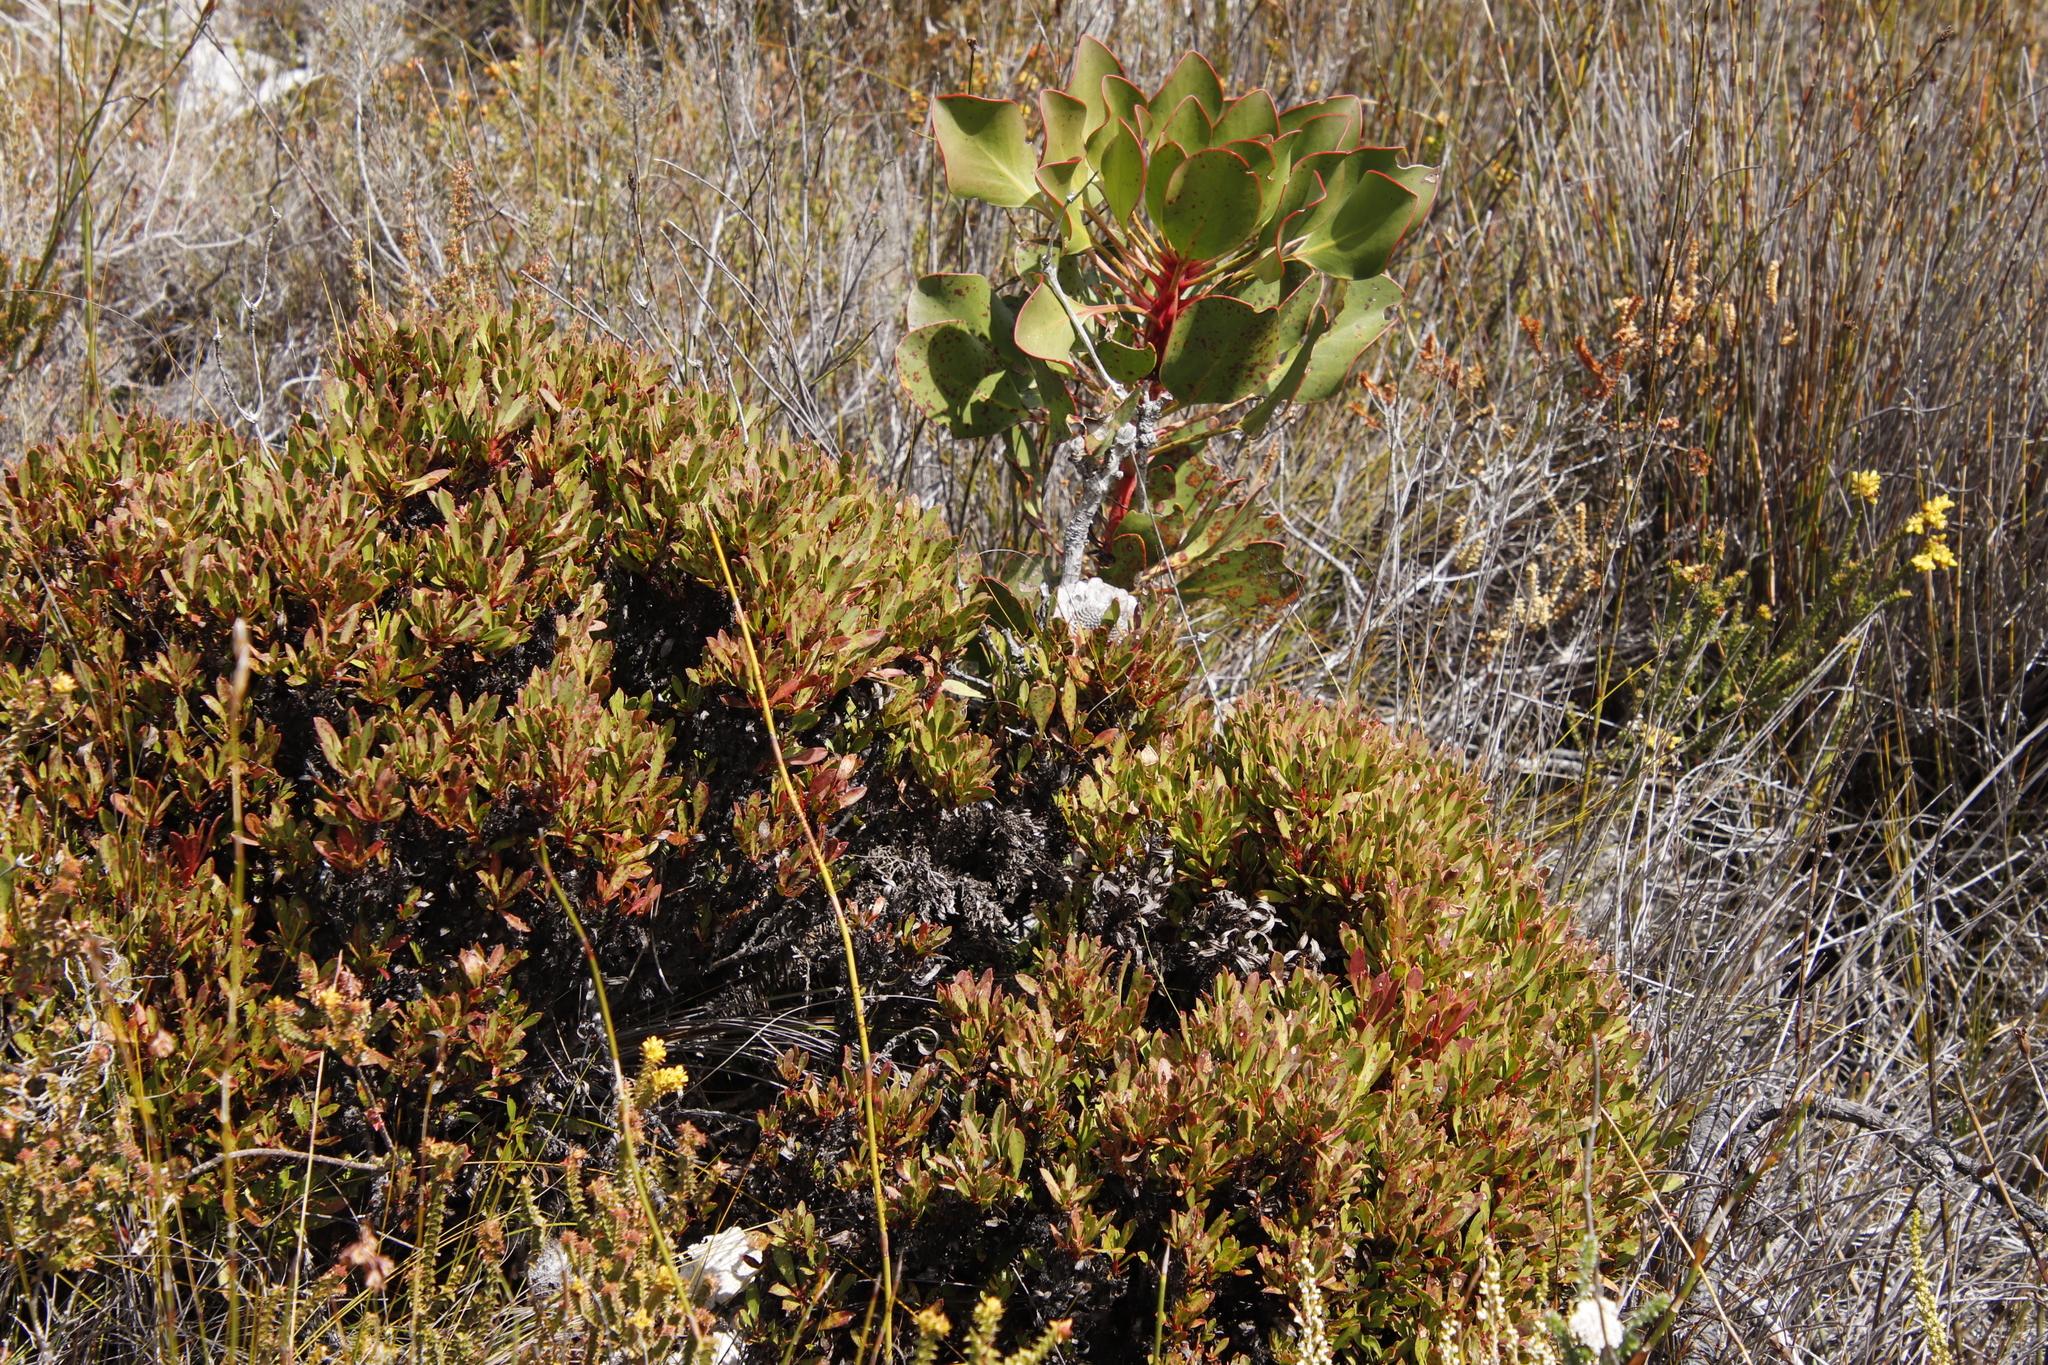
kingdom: Bacteria
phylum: Firmicutes
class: Bacilli
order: Acholeplasmatales
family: Acholeplasmataceae
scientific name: Acholeplasmataceae
